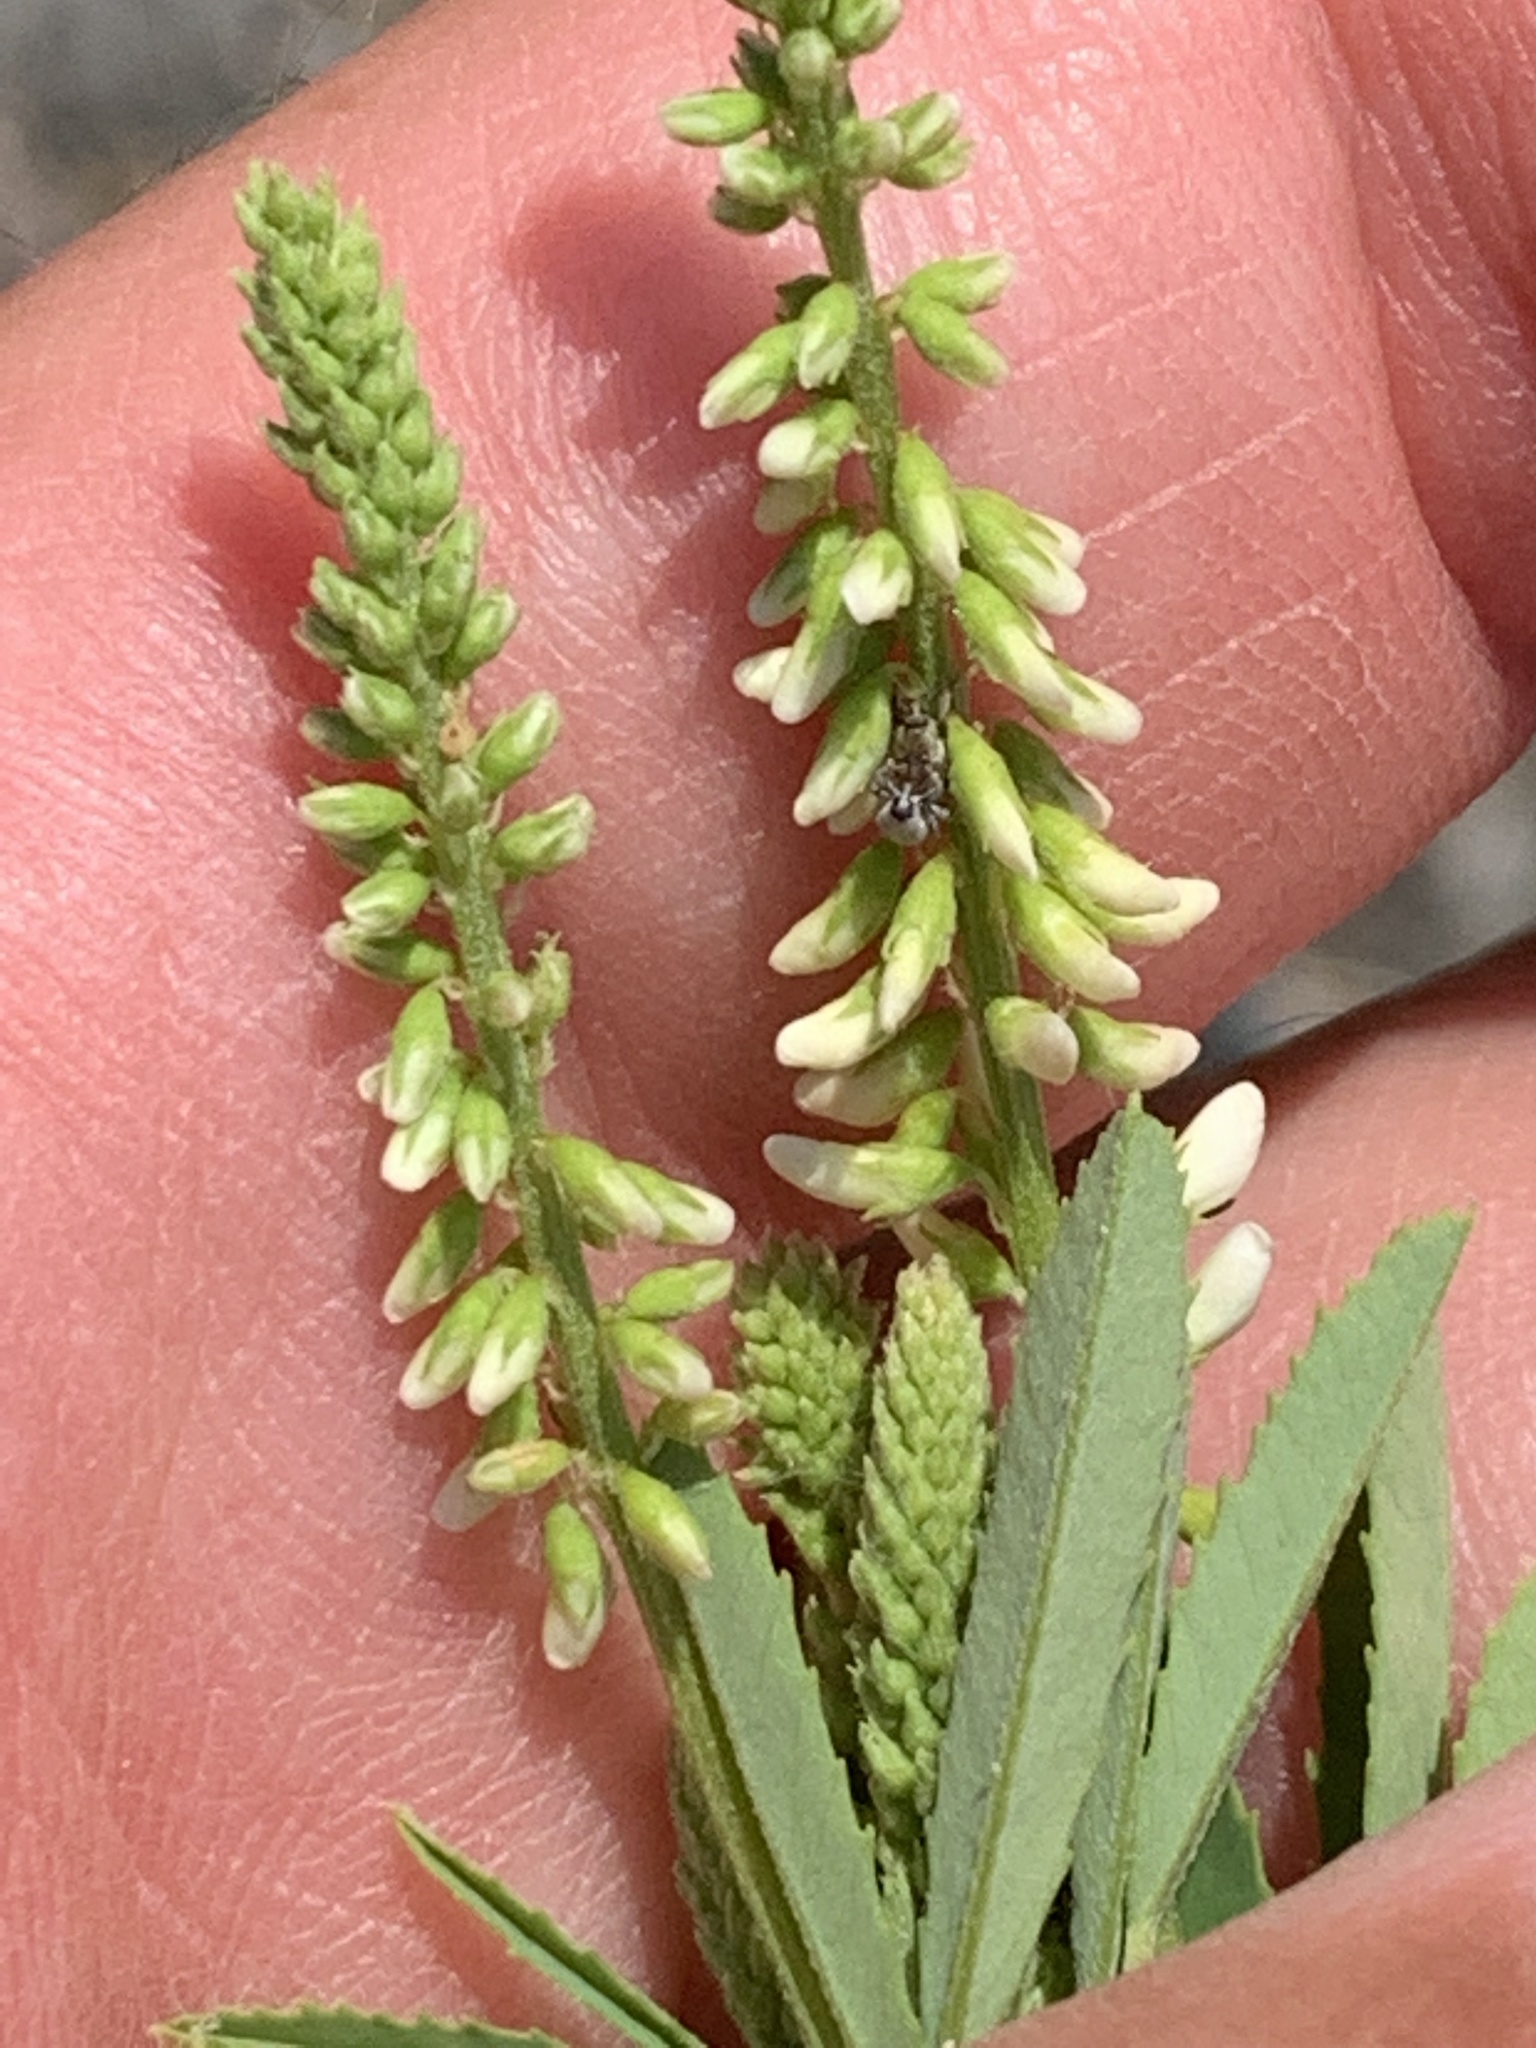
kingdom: Plantae
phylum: Tracheophyta
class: Magnoliopsida
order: Fabales
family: Fabaceae
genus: Melilotus
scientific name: Melilotus albus
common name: White melilot
